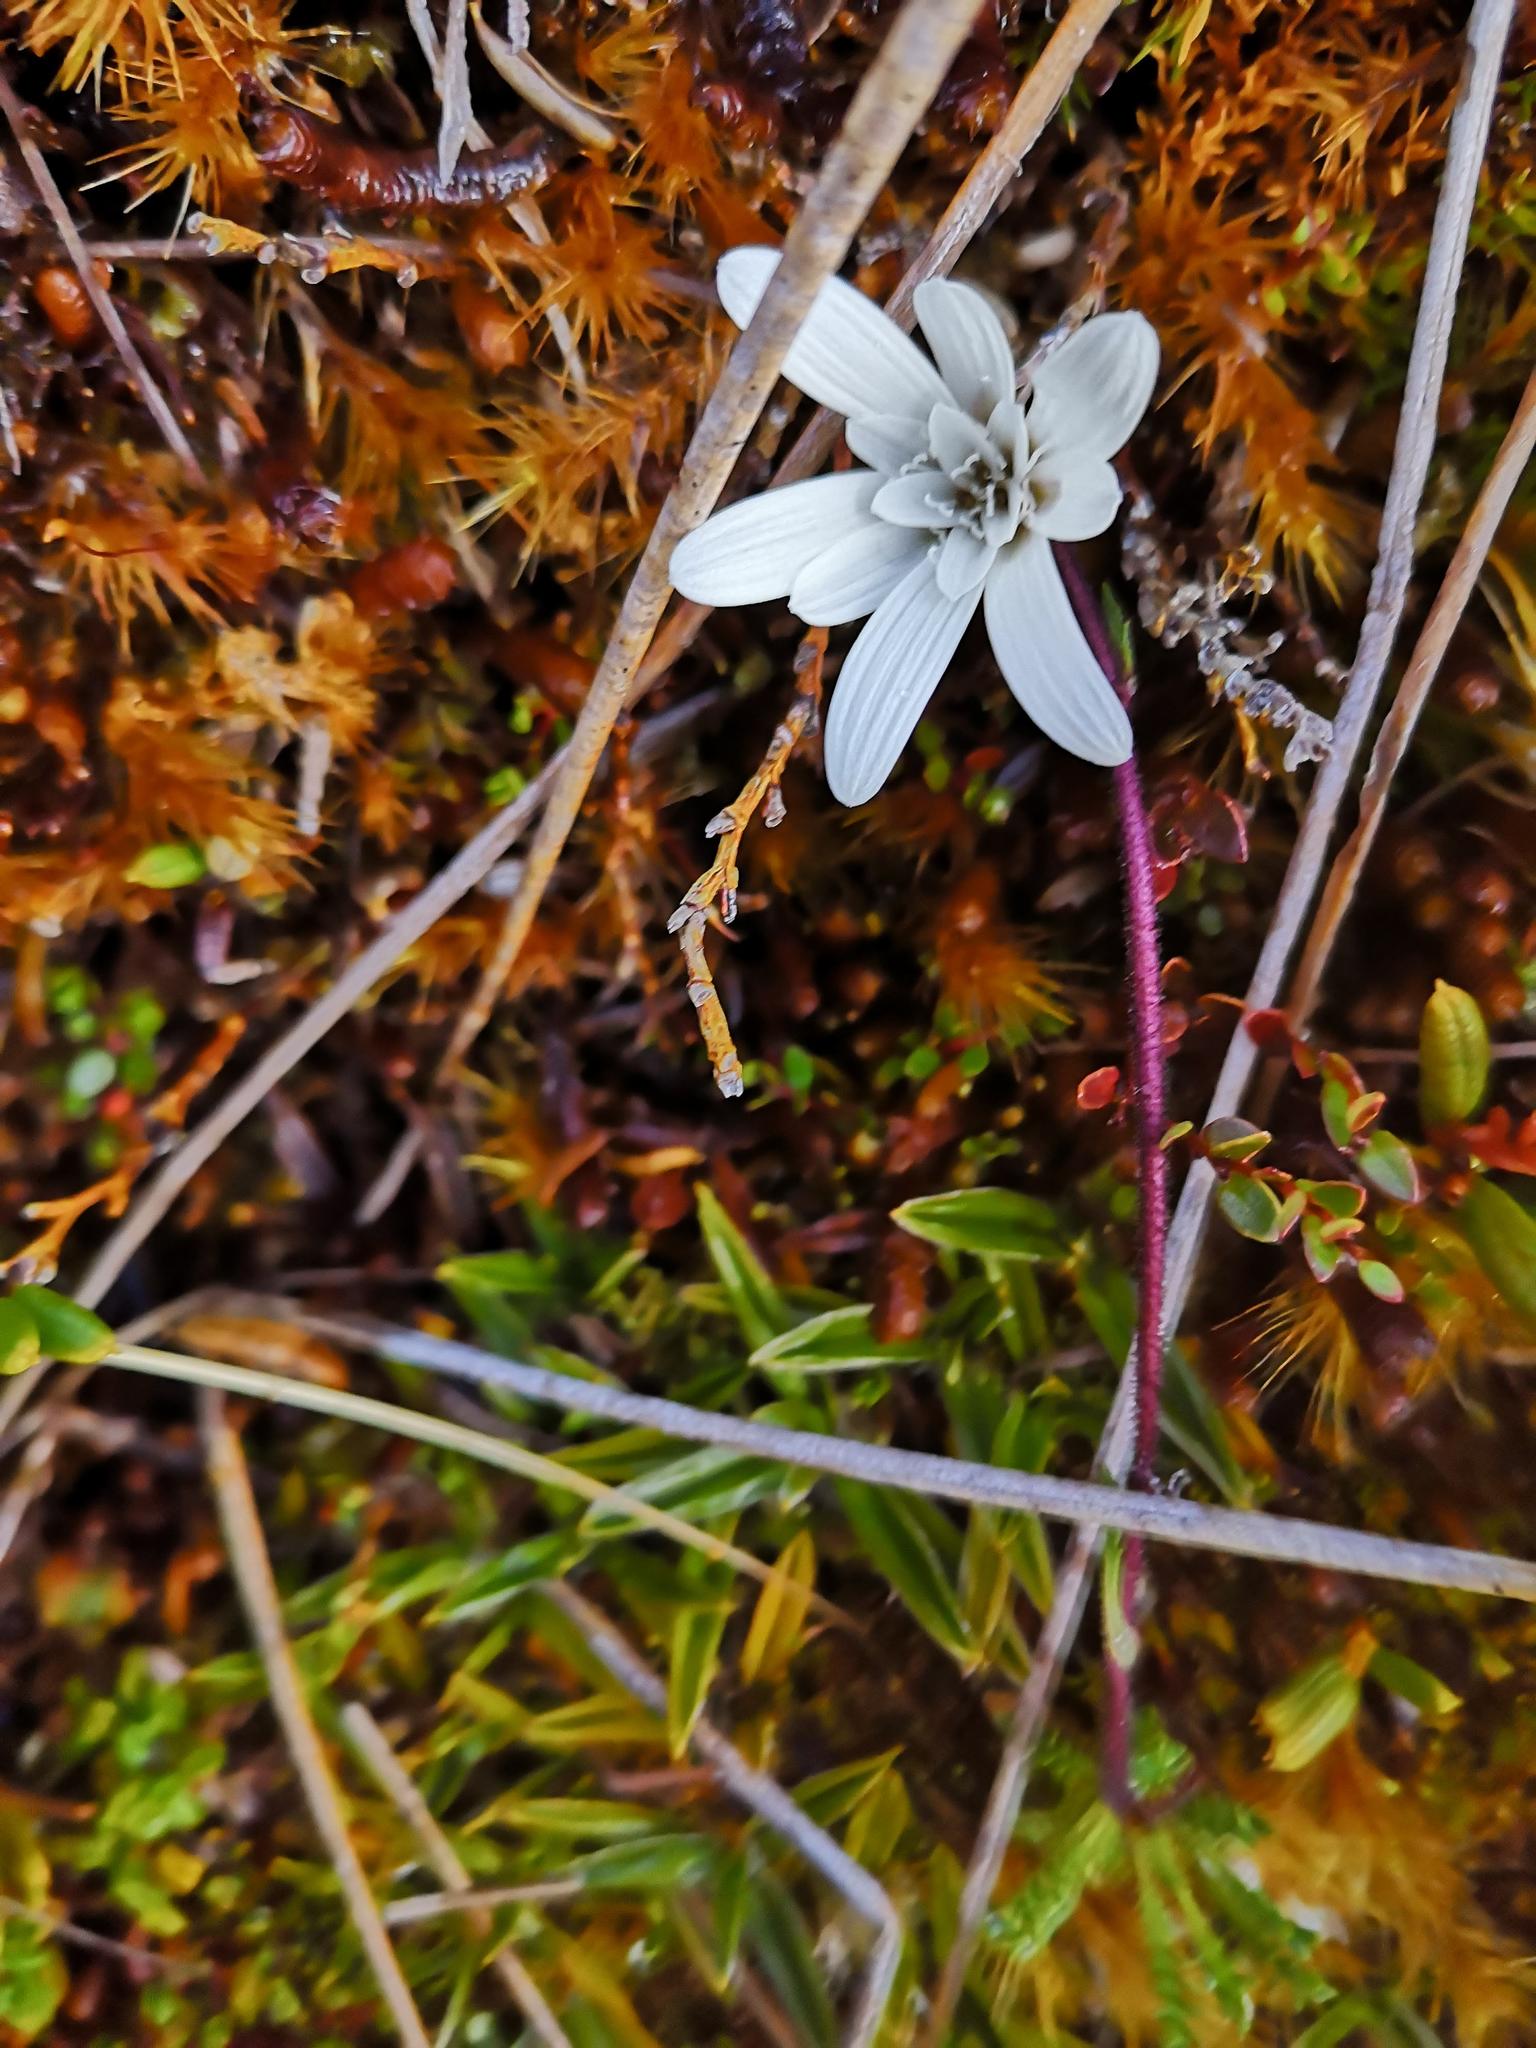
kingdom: Plantae
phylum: Tracheophyta
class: Magnoliopsida
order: Asterales
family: Asteraceae
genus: Perezia
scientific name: Perezia magellanica
